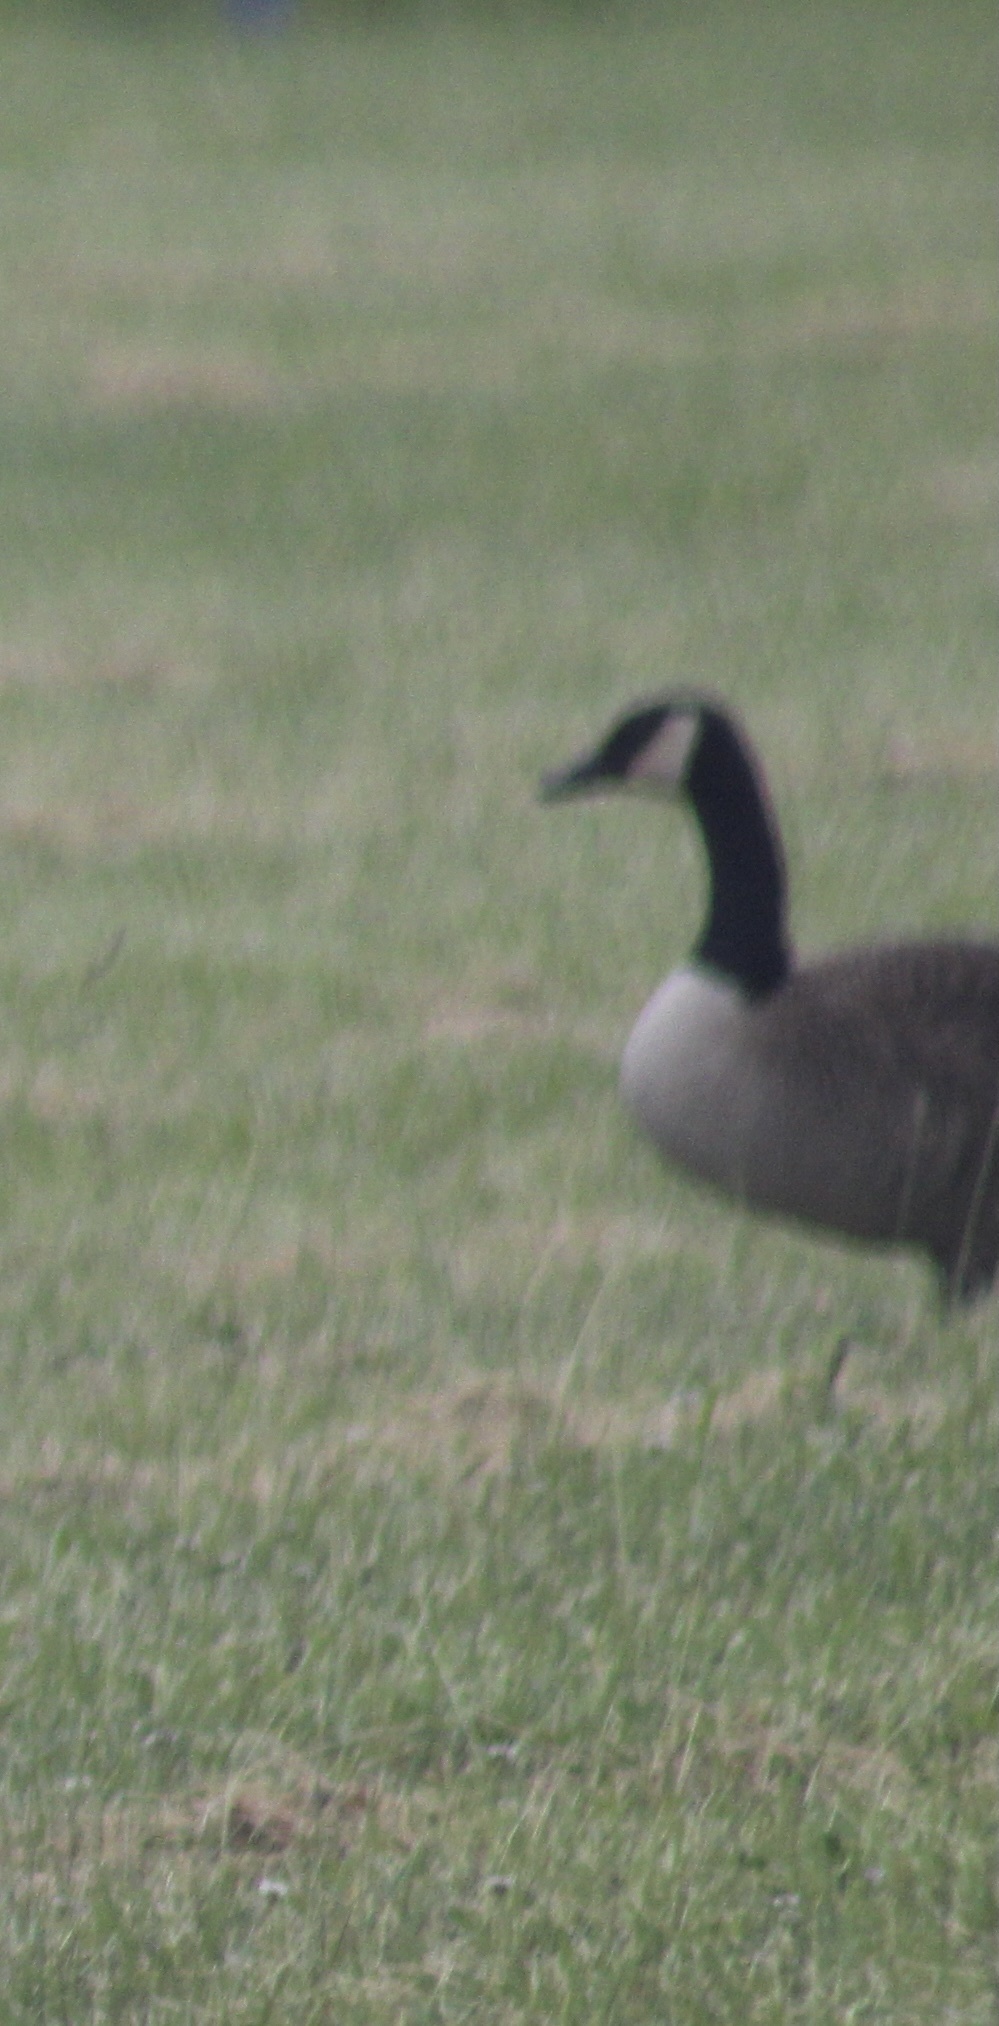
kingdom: Animalia
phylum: Chordata
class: Aves
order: Anseriformes
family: Anatidae
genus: Branta
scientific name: Branta canadensis
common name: Canada goose
